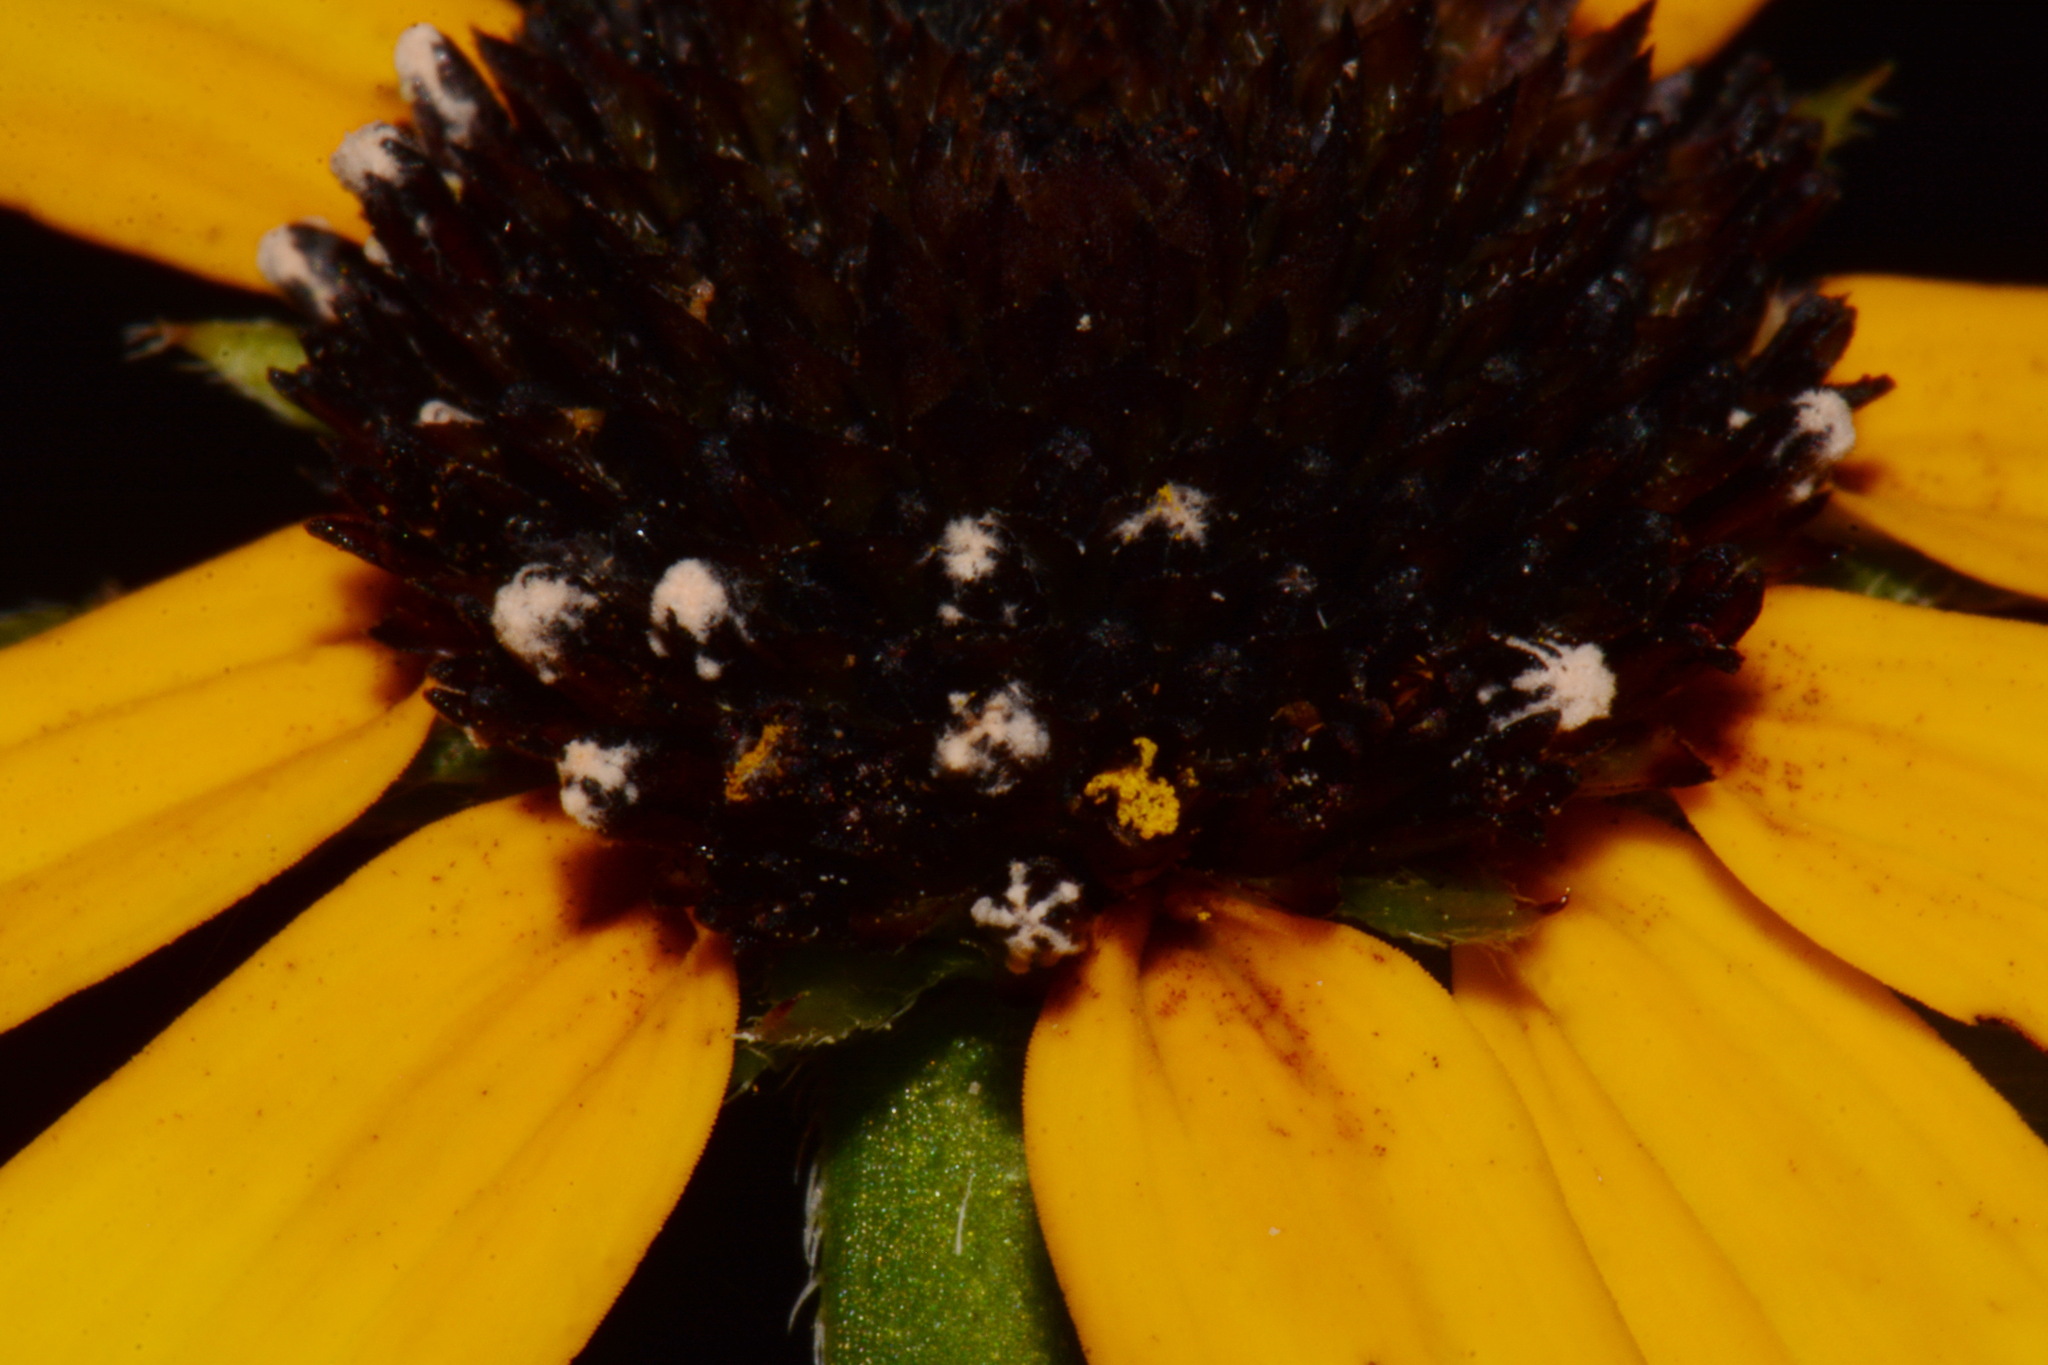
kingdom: Plantae
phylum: Tracheophyta
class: Magnoliopsida
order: Asterales
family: Asteraceae
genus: Rudbeckia
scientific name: Rudbeckia tenax
